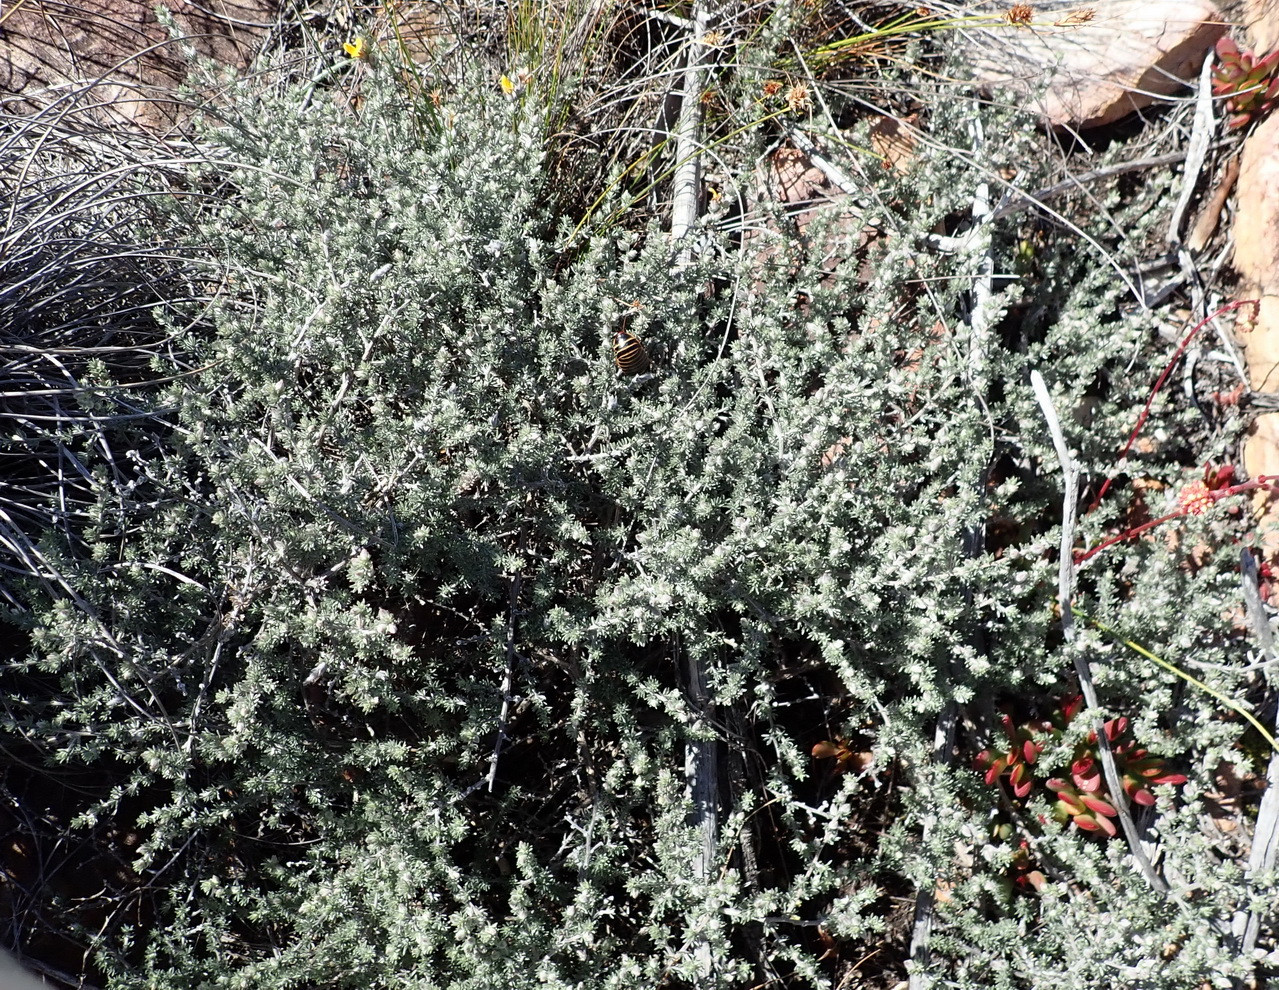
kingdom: Plantae
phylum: Tracheophyta
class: Magnoliopsida
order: Fabales
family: Fabaceae
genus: Aspalathus
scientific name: Aspalathus kougaensis
